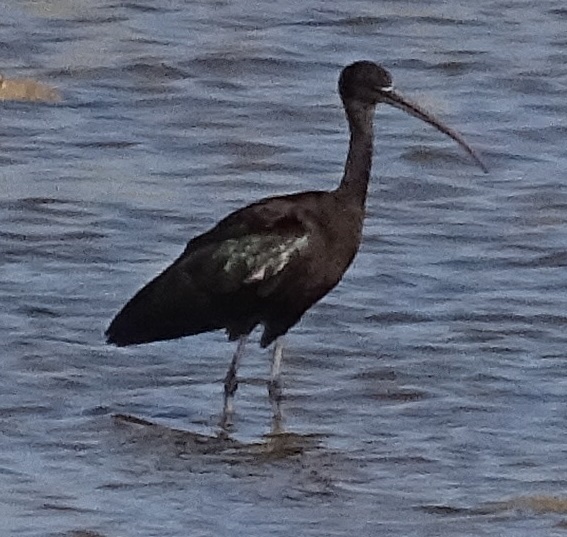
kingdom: Animalia
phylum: Chordata
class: Aves
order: Pelecaniformes
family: Threskiornithidae
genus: Plegadis
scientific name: Plegadis falcinellus
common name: Glossy ibis
